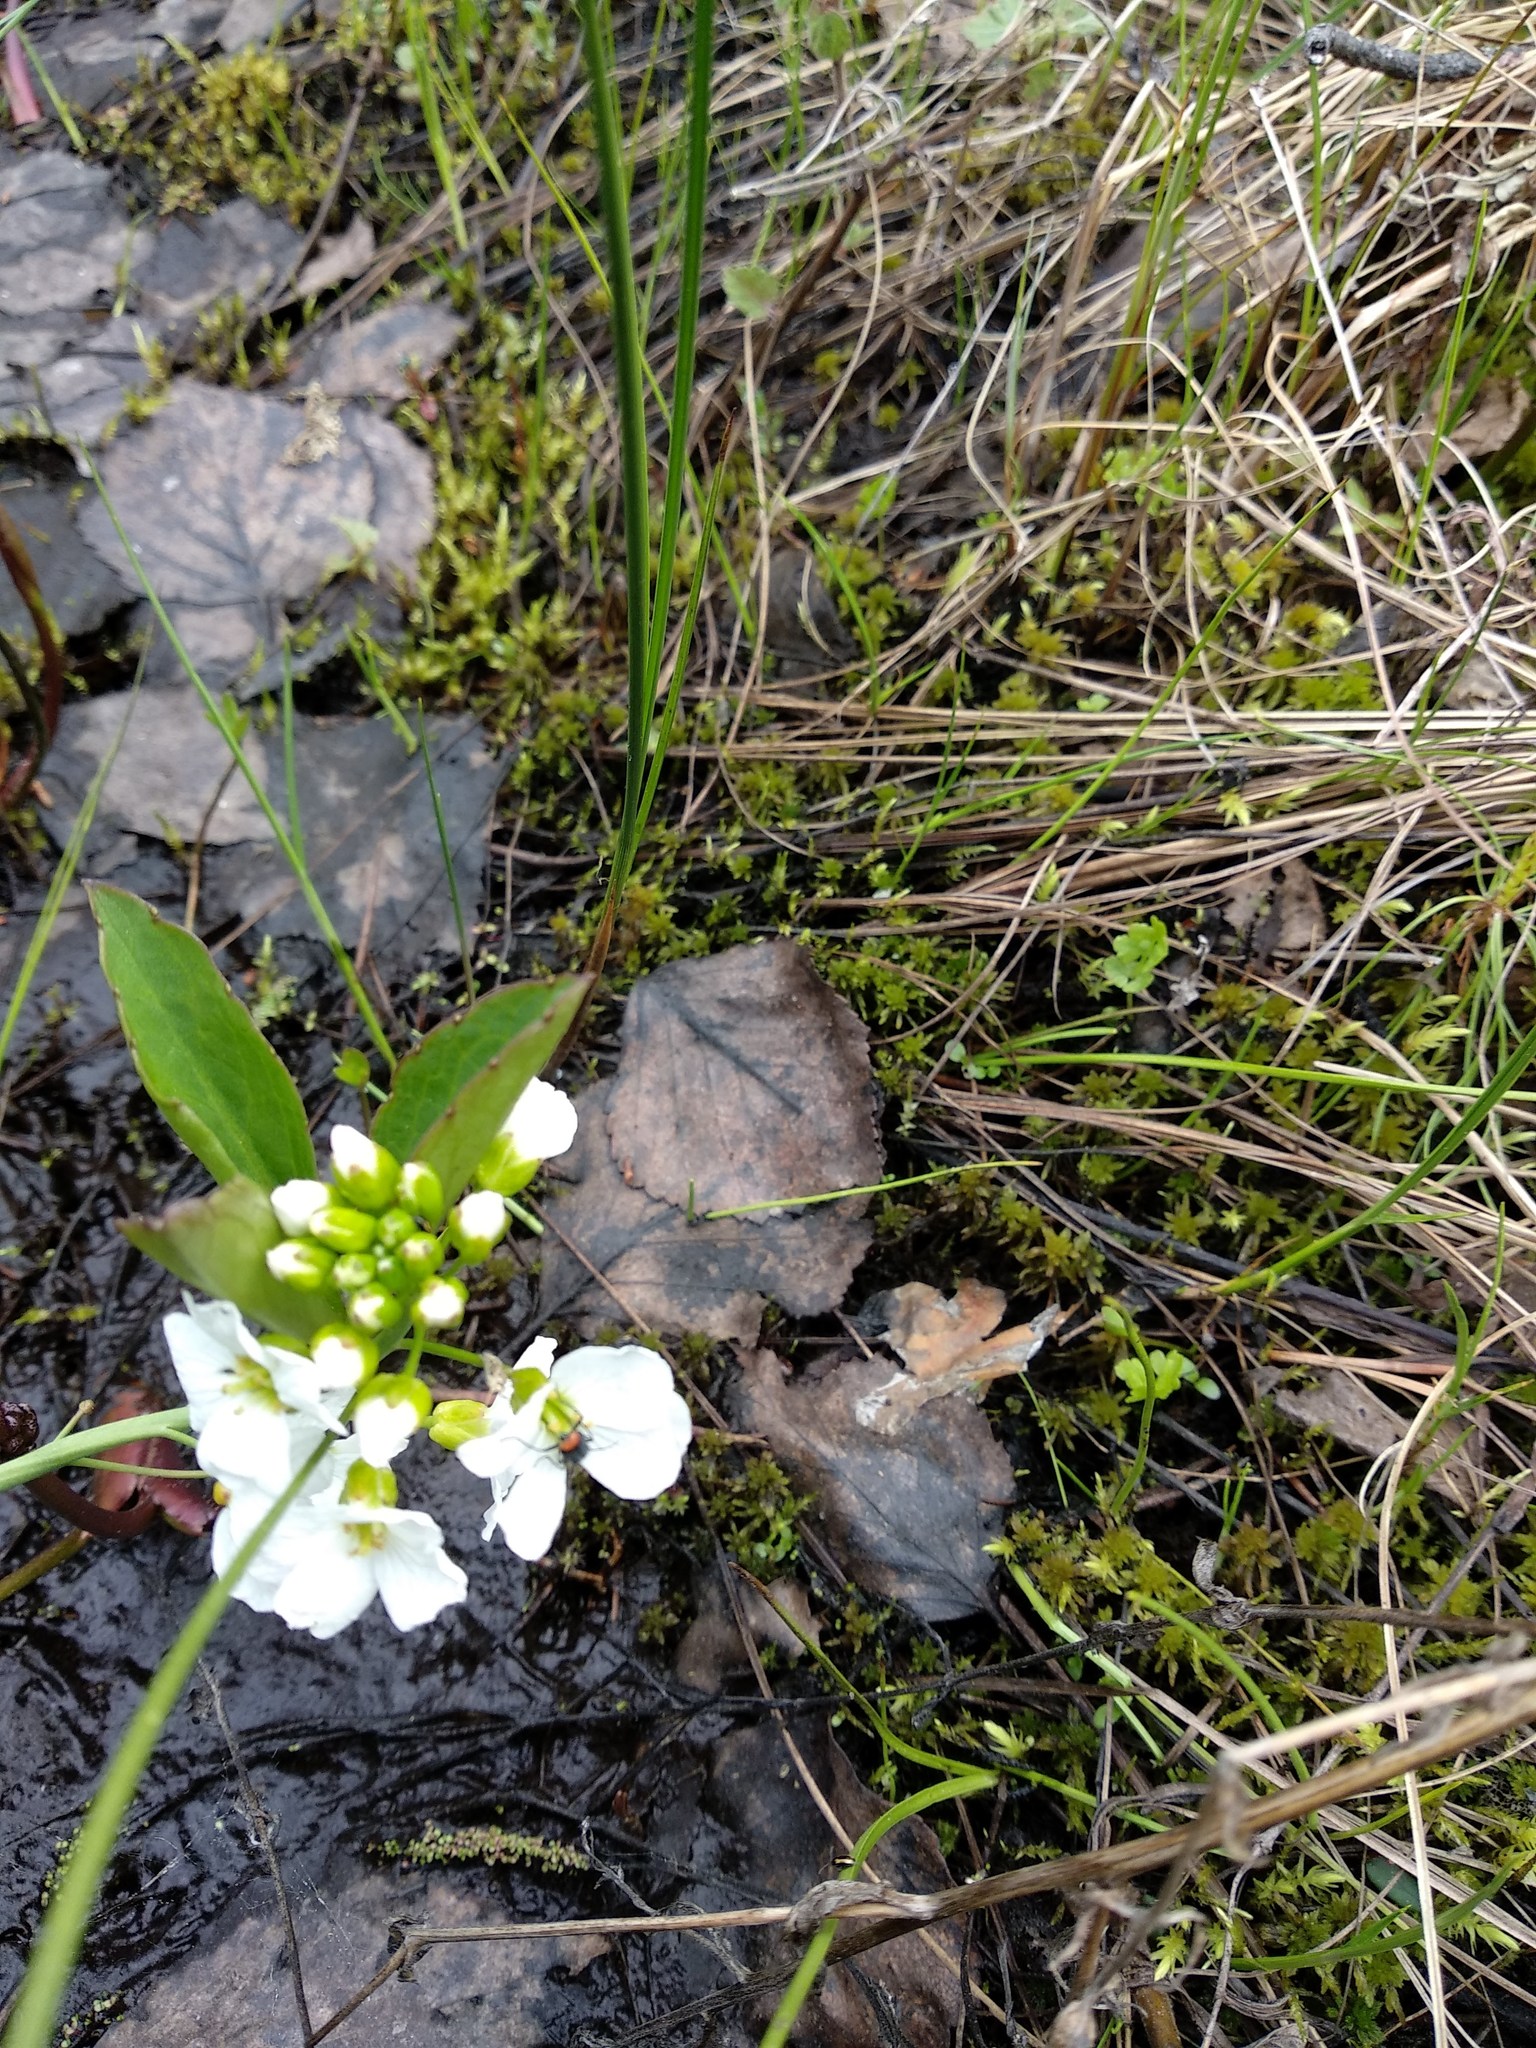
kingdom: Plantae
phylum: Tracheophyta
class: Magnoliopsida
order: Brassicales
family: Brassicaceae
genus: Cardamine
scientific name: Cardamine pratensis
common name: Cuckoo flower
